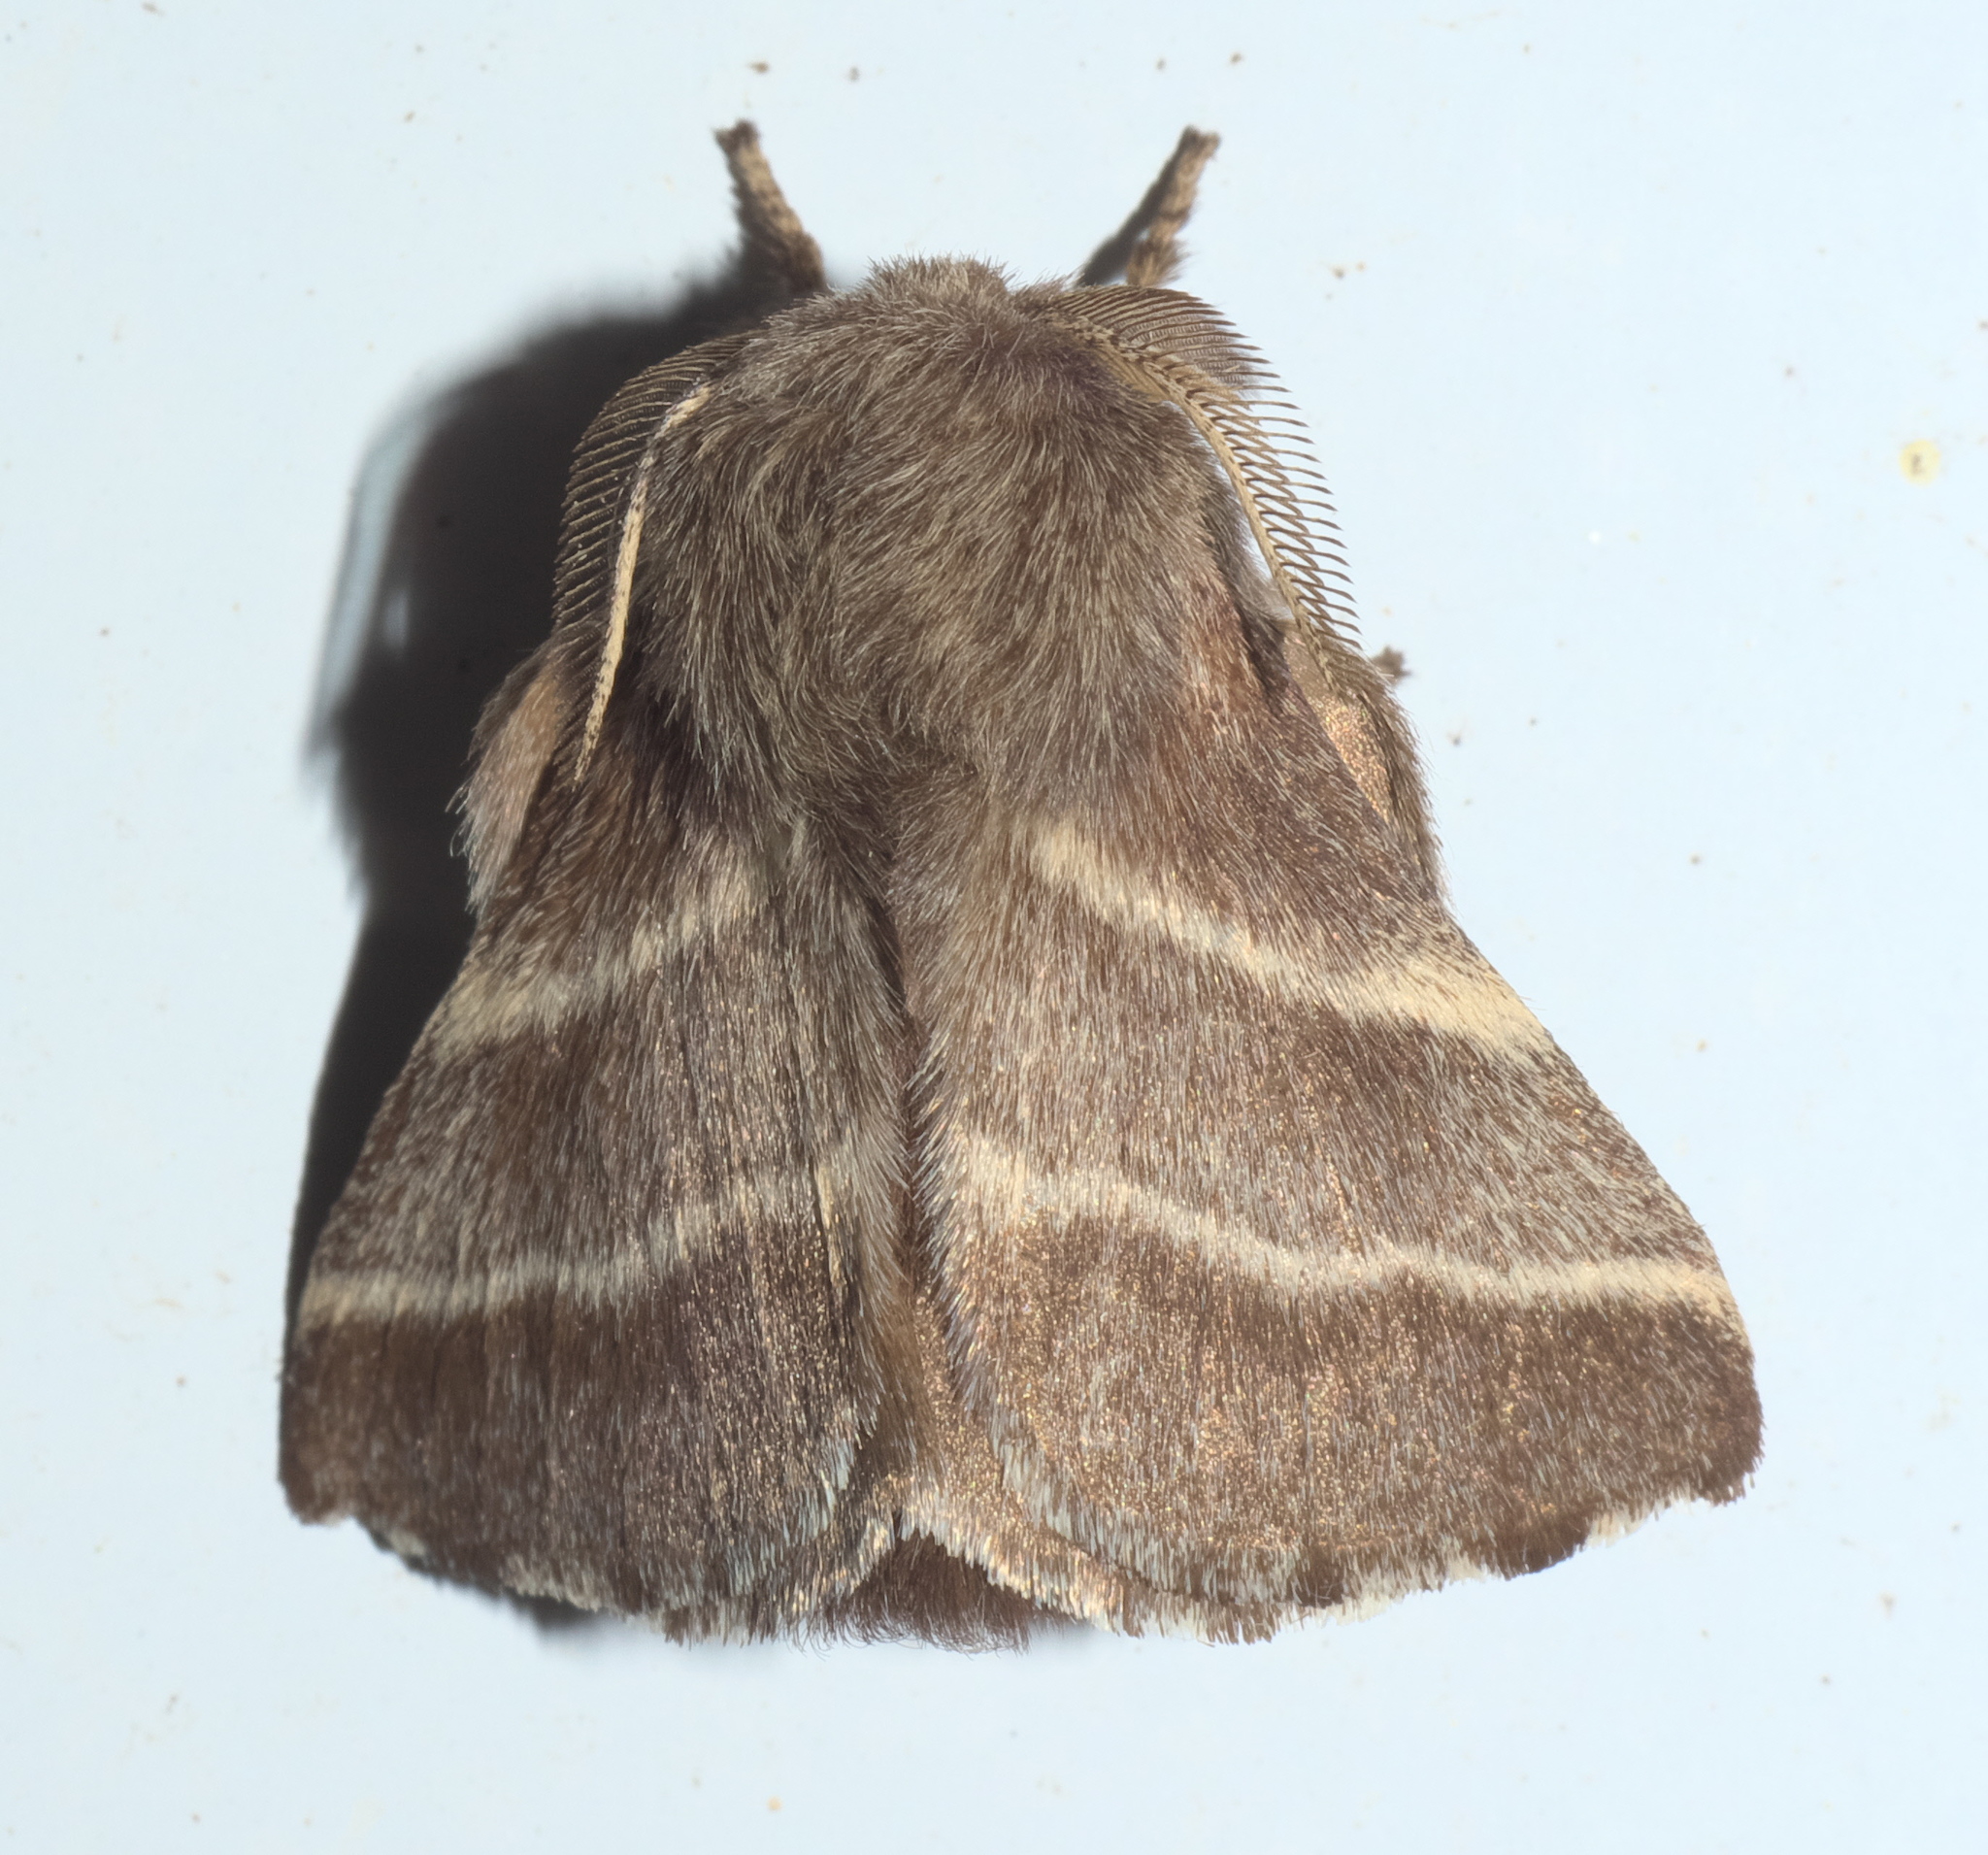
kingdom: Animalia
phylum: Arthropoda
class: Insecta
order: Lepidoptera
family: Lasiocampidae
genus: Malacosoma
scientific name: Malacosoma americana
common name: Eastern tent caterpillar moth
